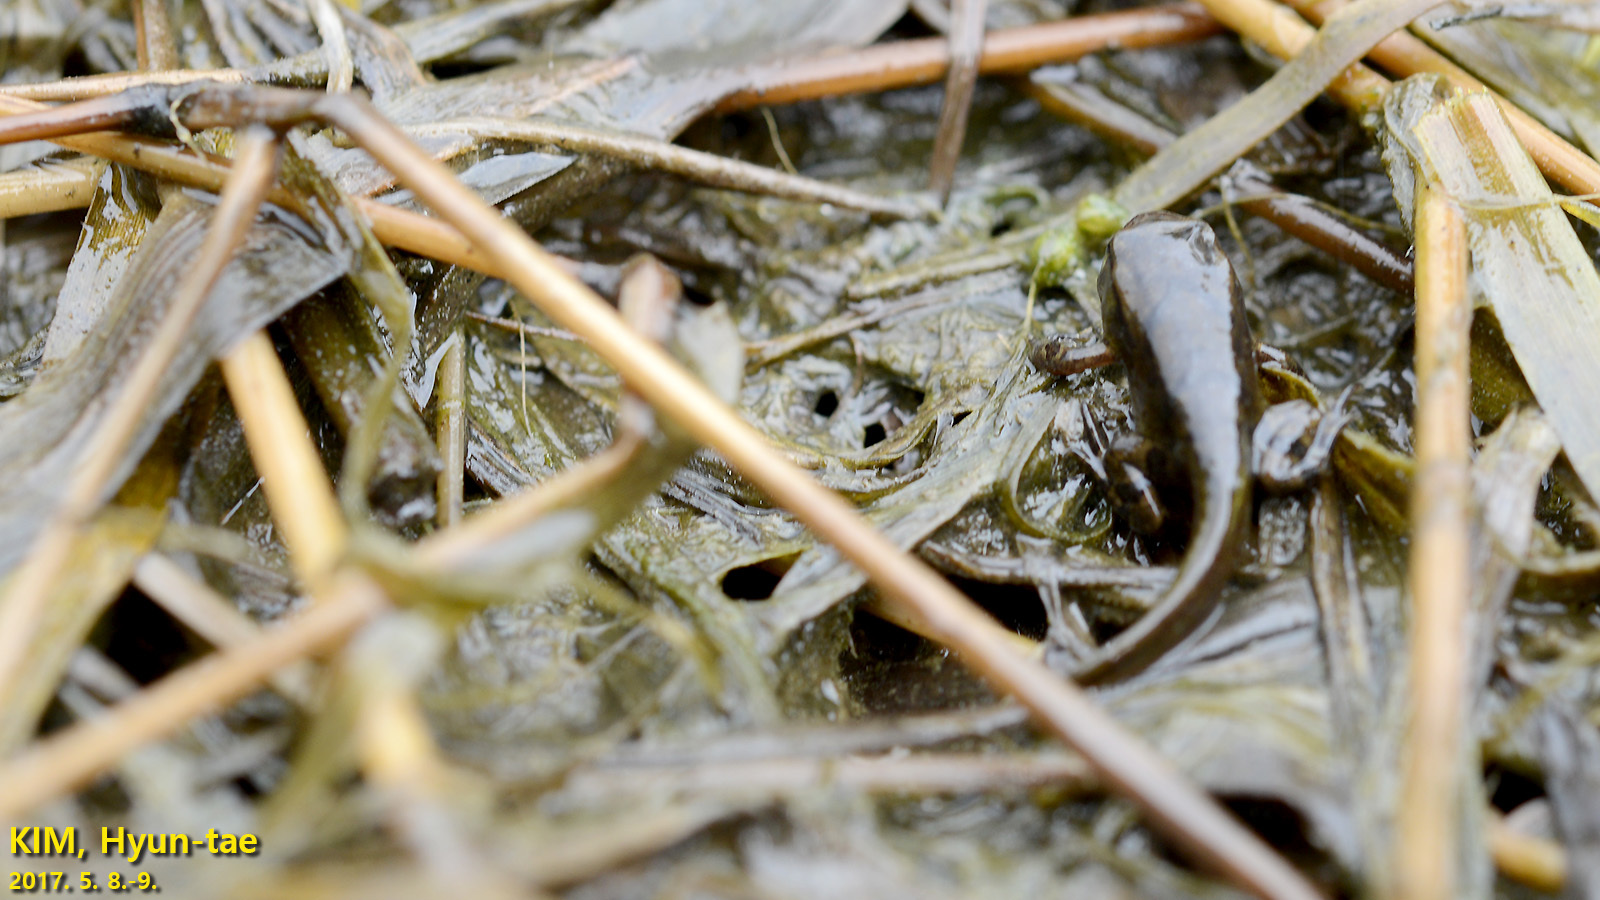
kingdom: Animalia
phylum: Chordata
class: Amphibia
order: Anura
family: Bufonidae
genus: Bufo
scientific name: Bufo gargarizans
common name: Asiatic toad
